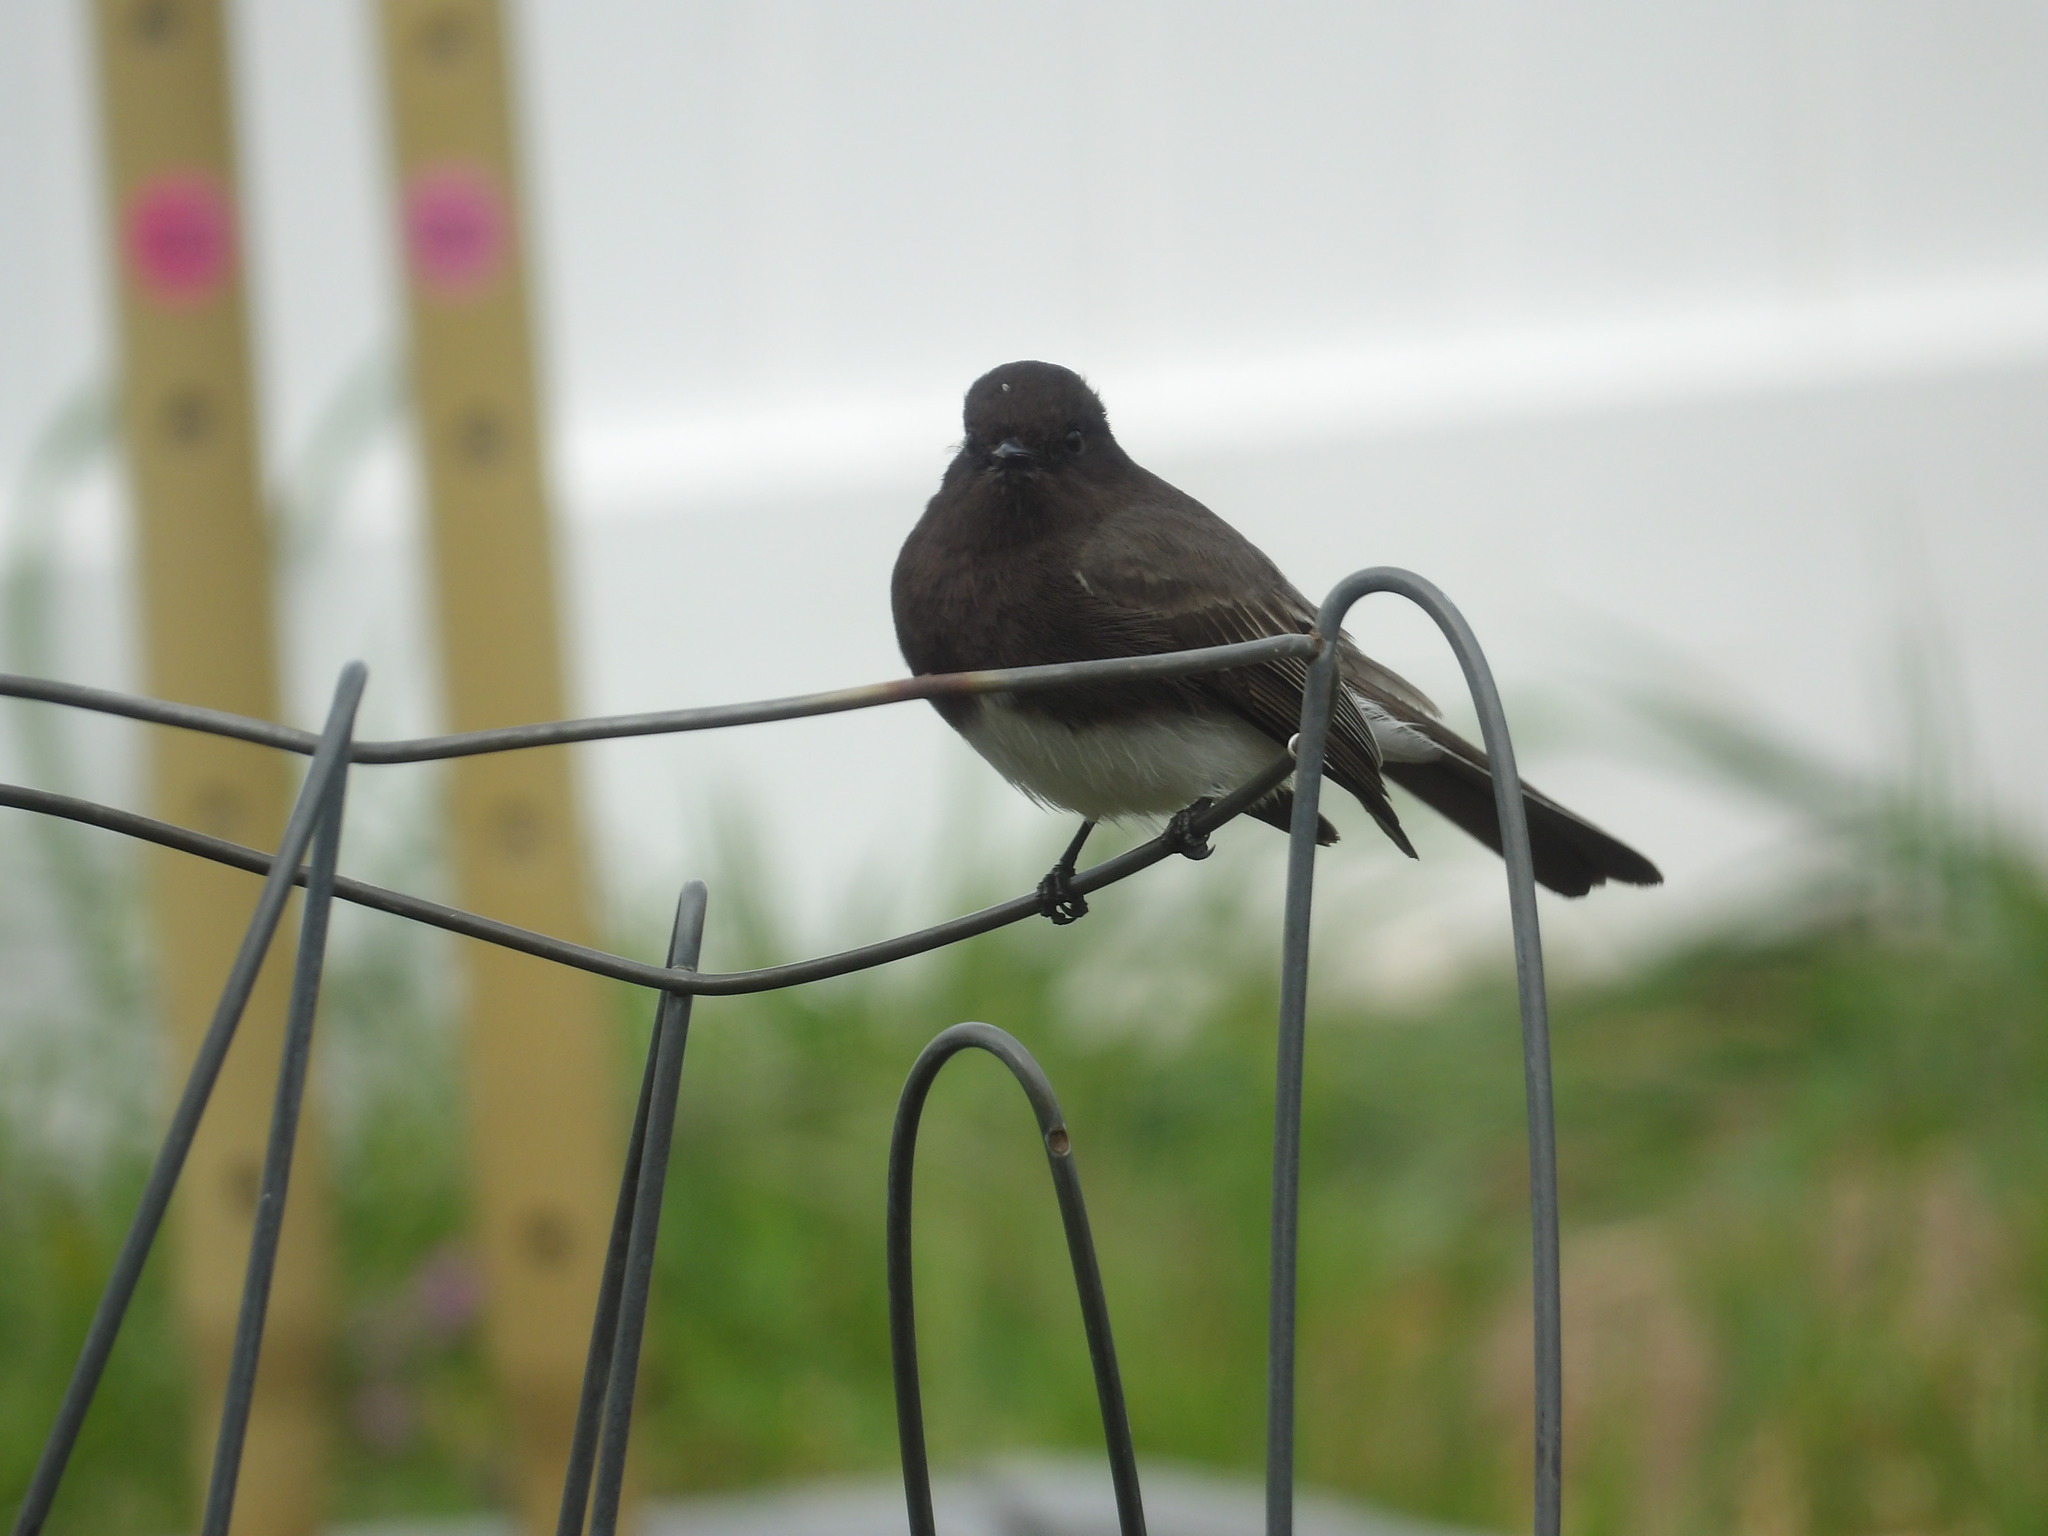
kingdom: Animalia
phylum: Chordata
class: Aves
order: Passeriformes
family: Tyrannidae
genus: Sayornis
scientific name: Sayornis nigricans
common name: Black phoebe
